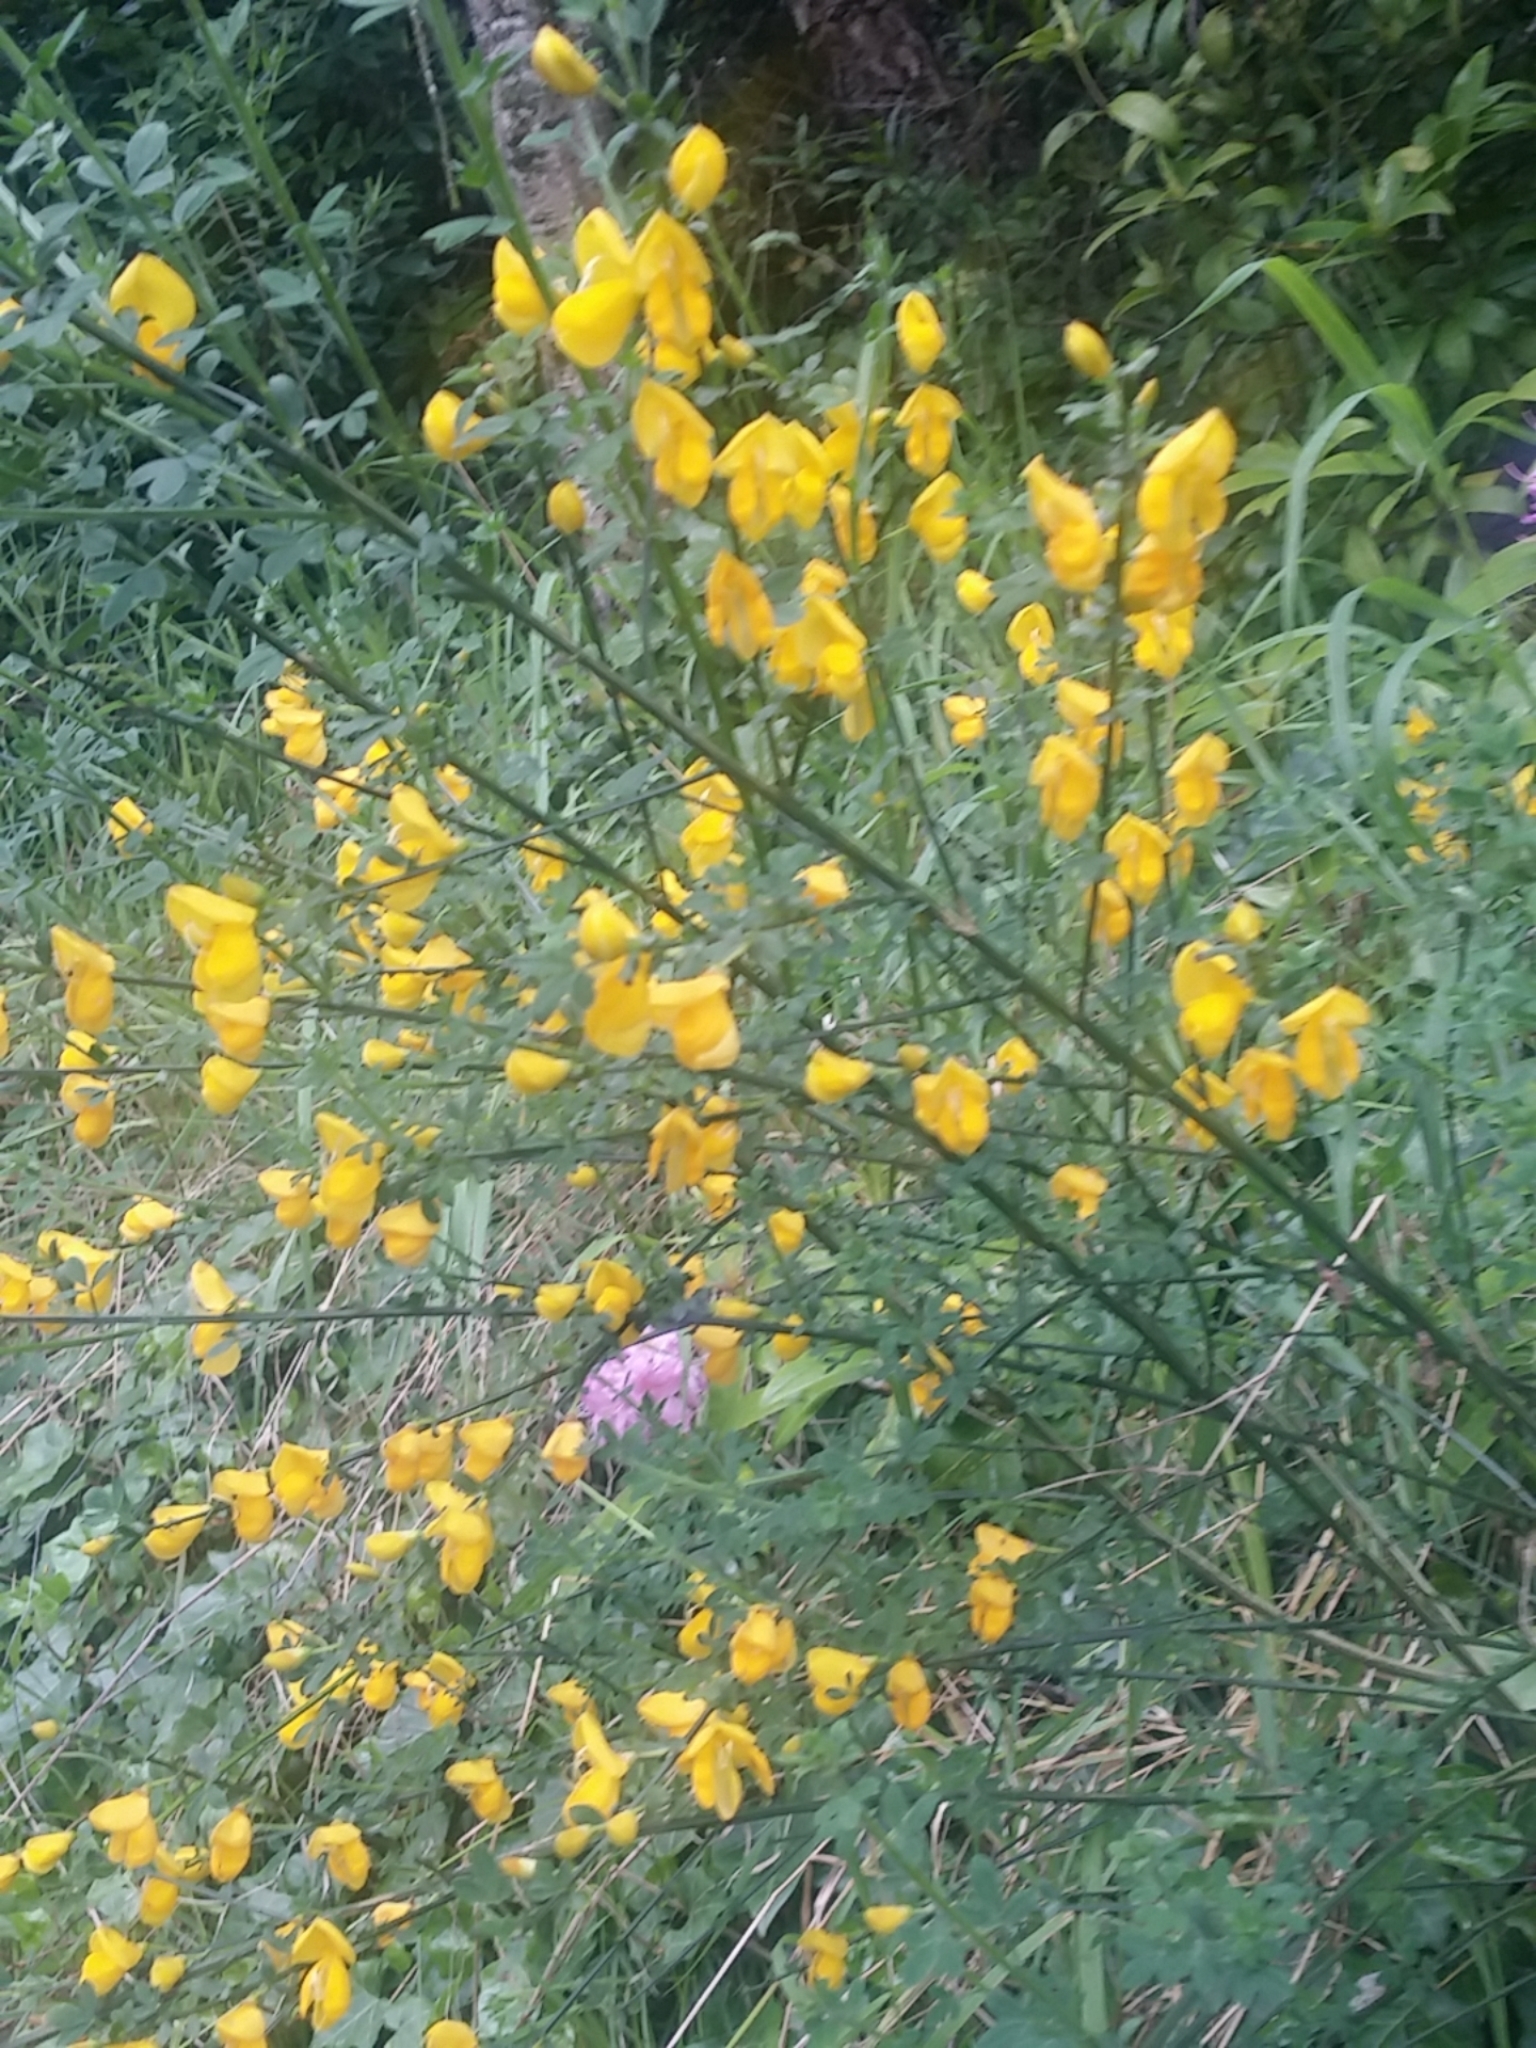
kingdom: Plantae
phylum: Tracheophyta
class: Magnoliopsida
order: Fabales
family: Fabaceae
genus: Cytisus
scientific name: Cytisus scoparius
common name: Scotch broom
